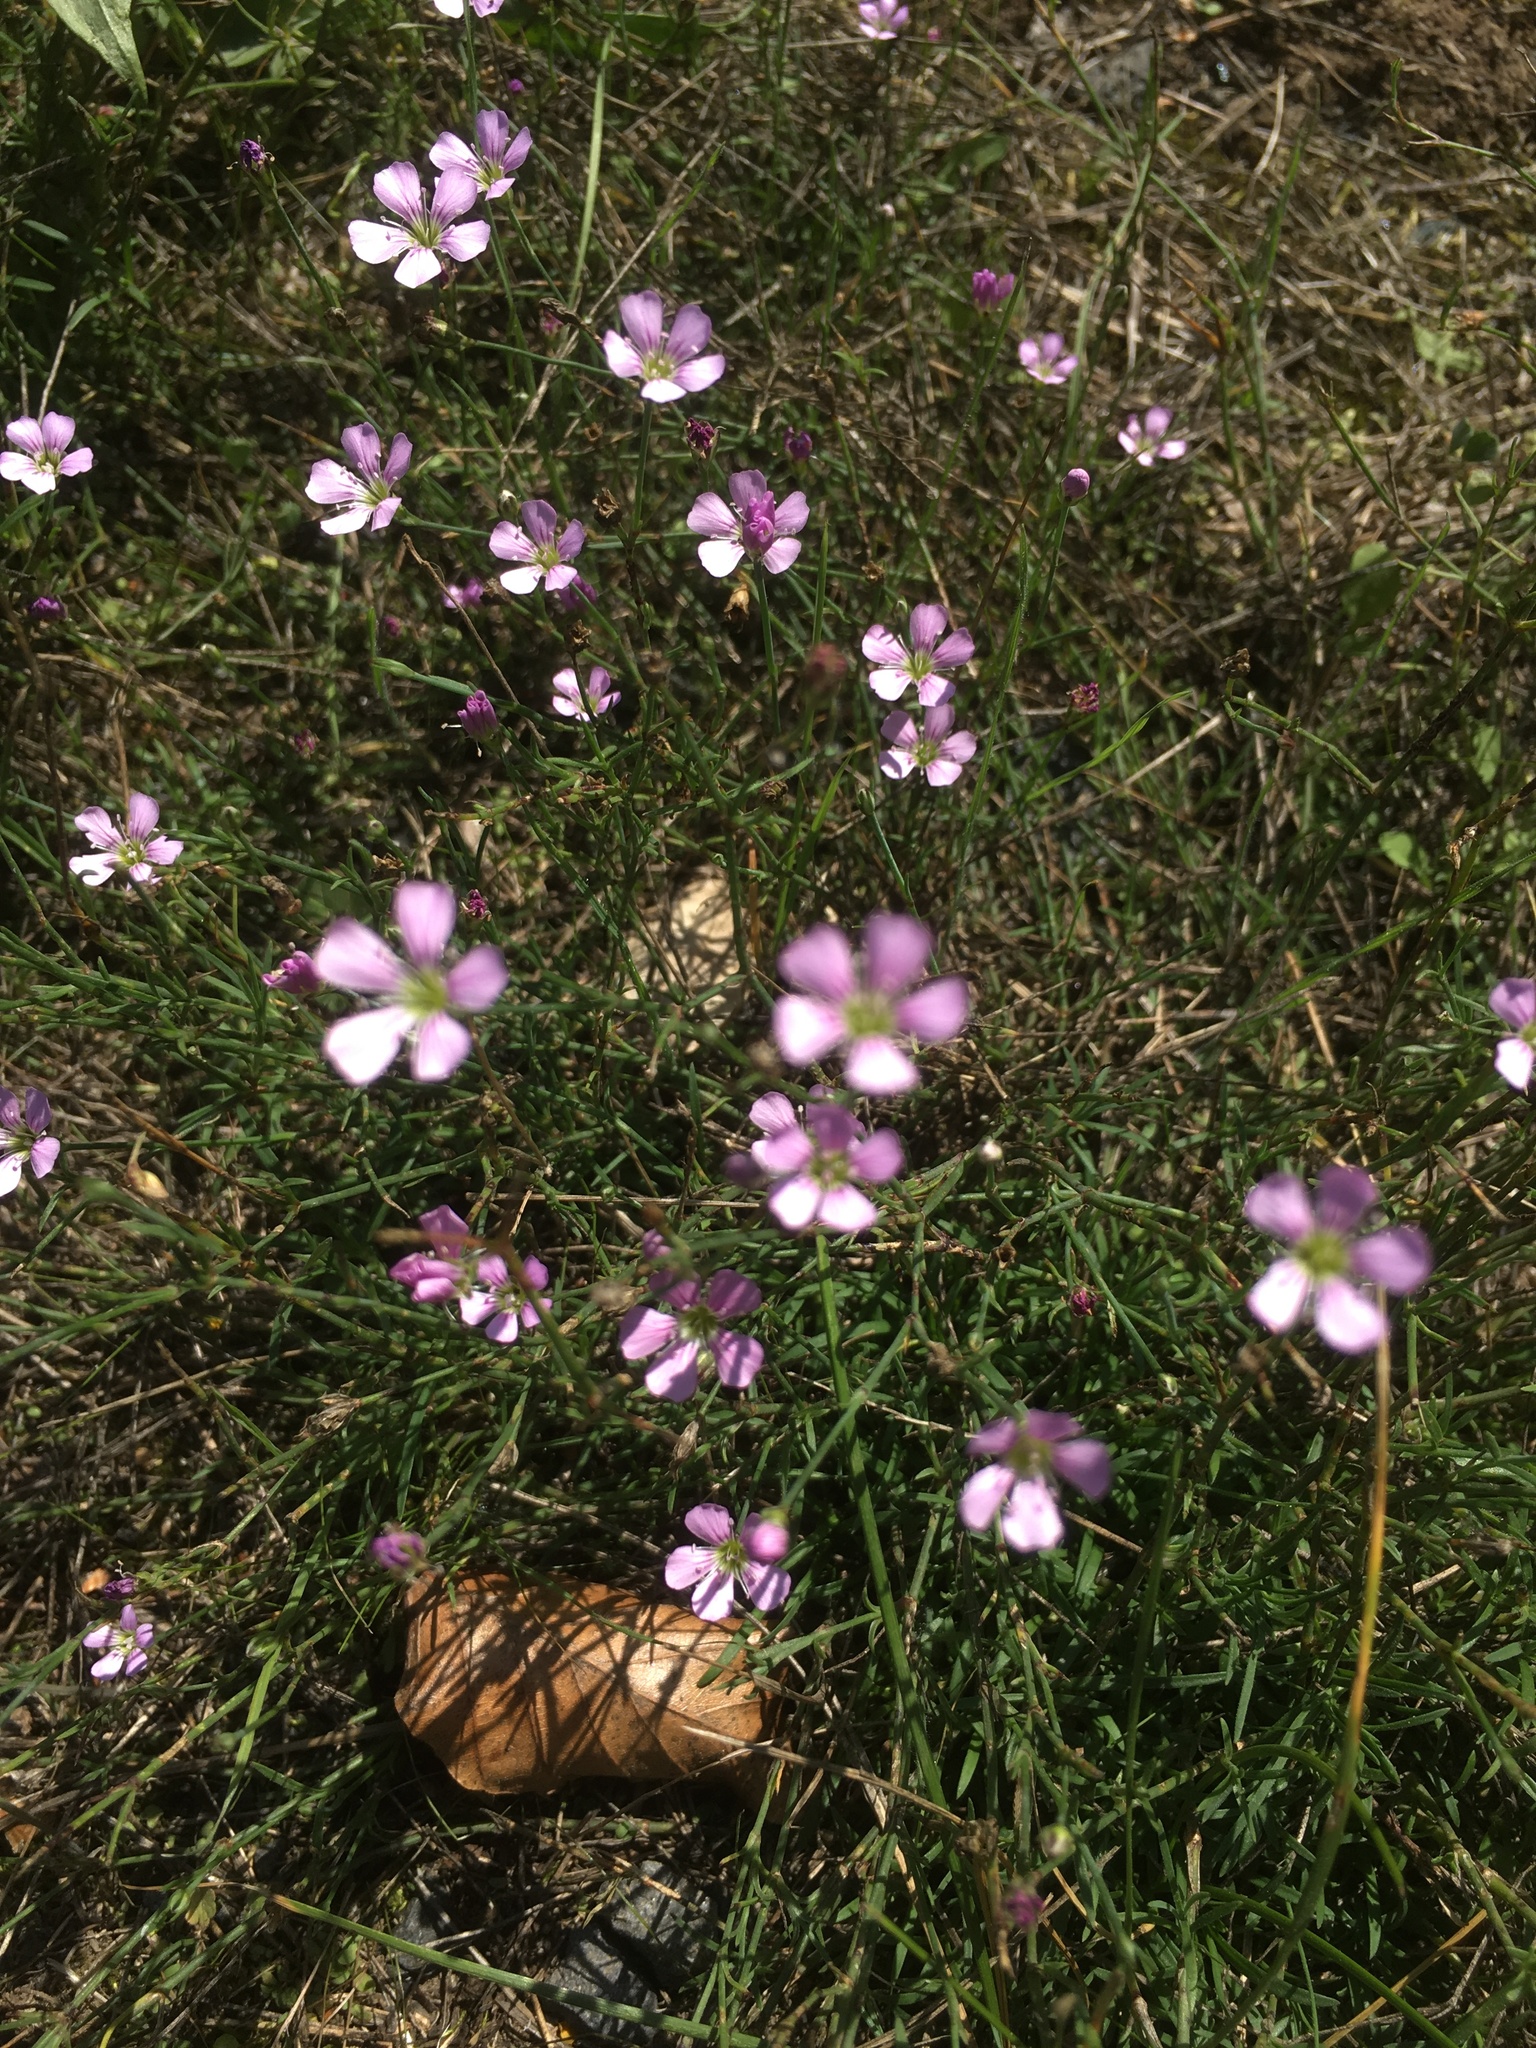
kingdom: Plantae
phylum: Tracheophyta
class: Magnoliopsida
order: Caryophyllales
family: Caryophyllaceae
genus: Petrorhagia
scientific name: Petrorhagia saxifraga
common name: Tunicflower
